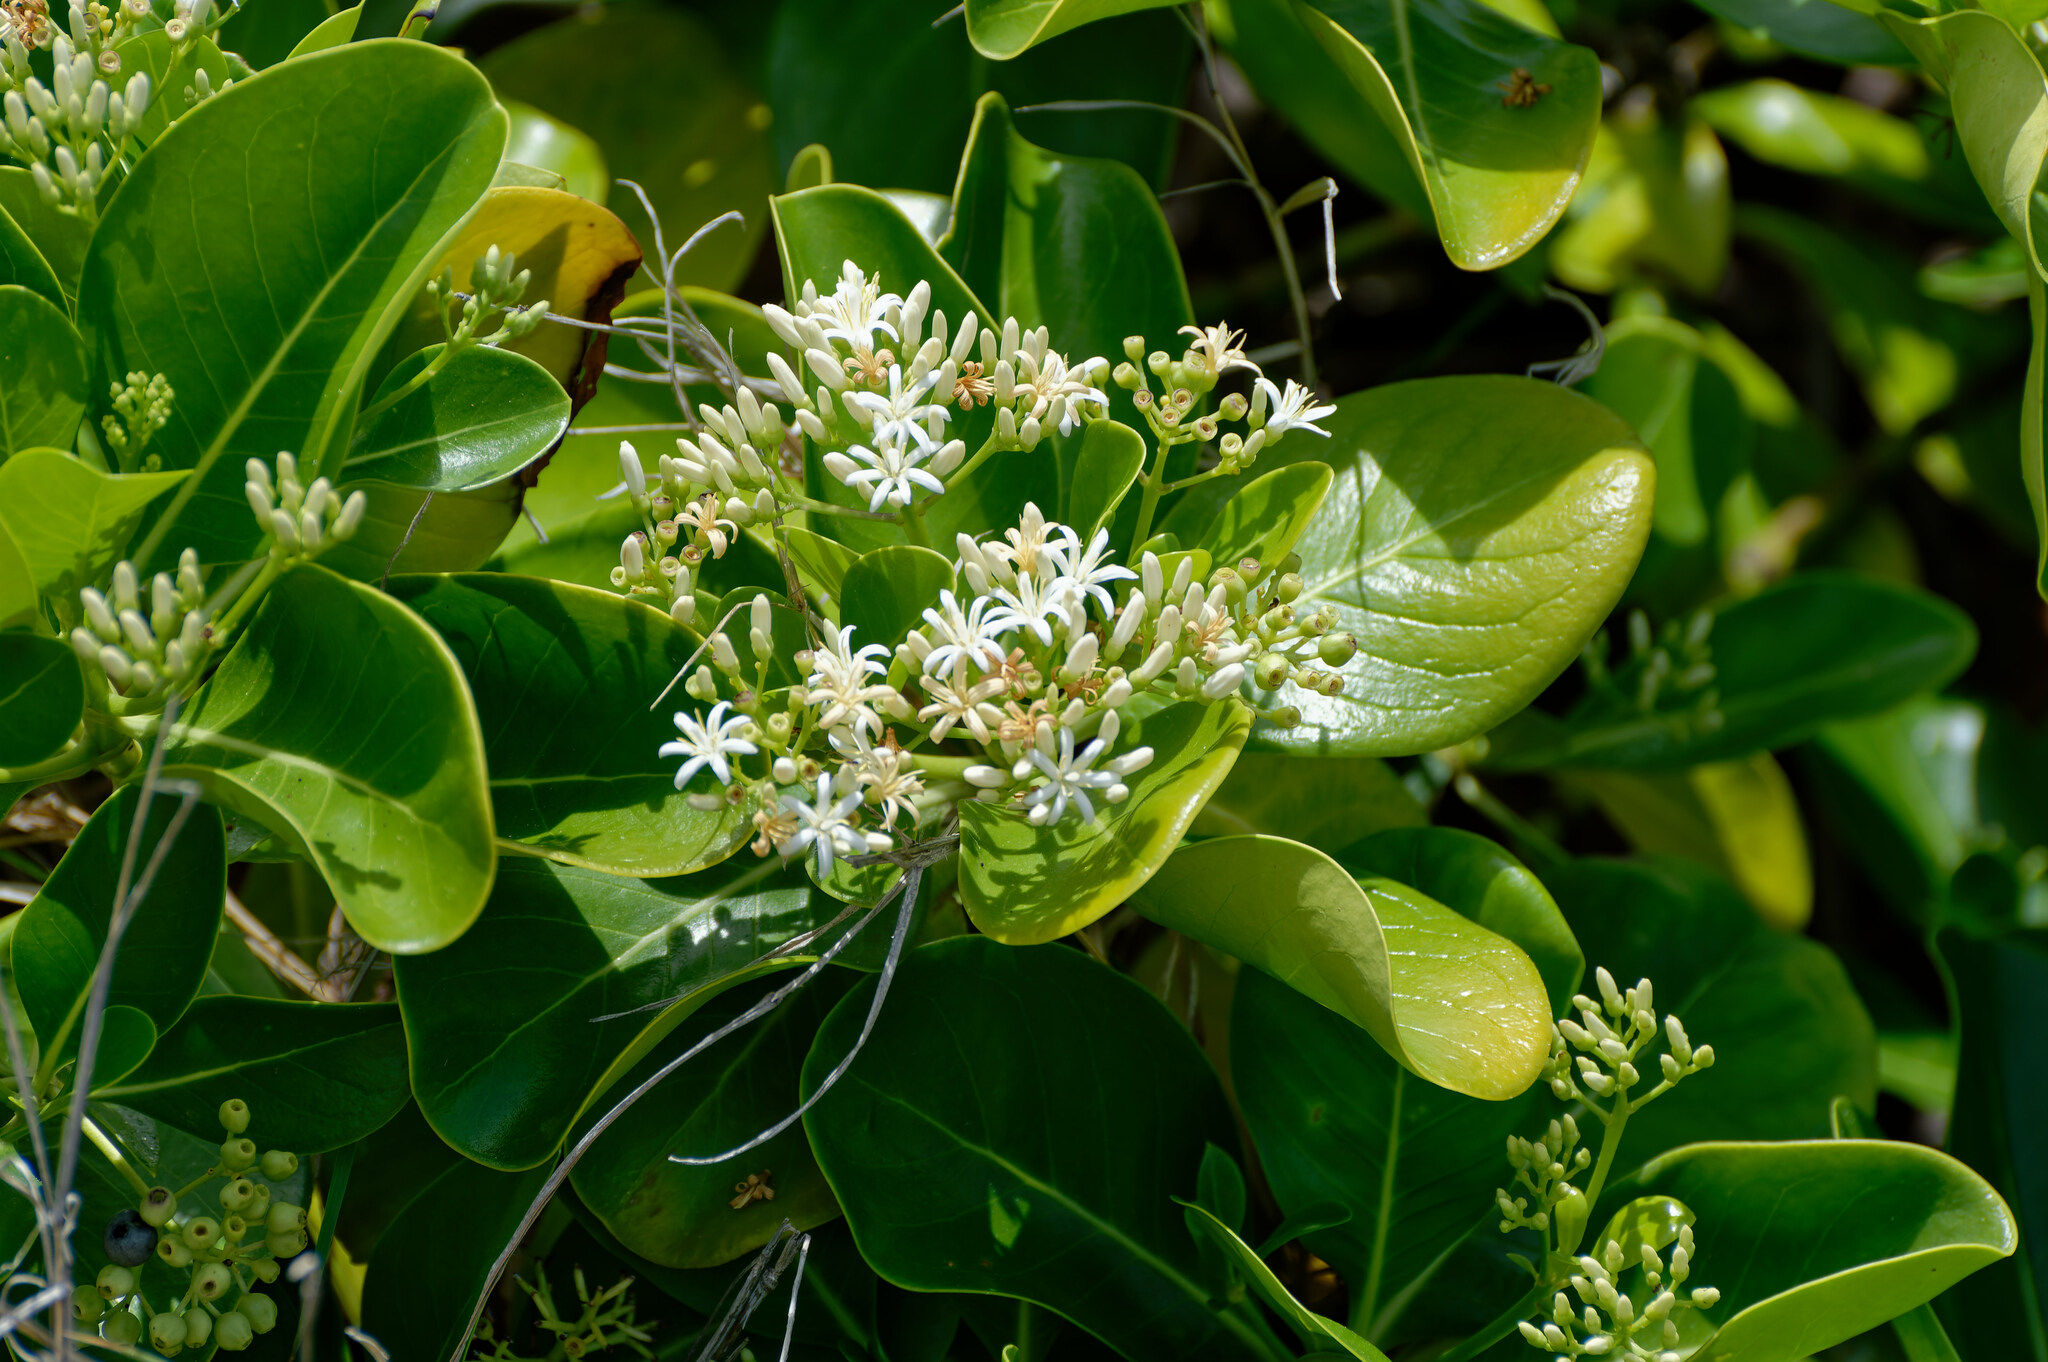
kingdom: Plantae
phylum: Tracheophyta
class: Magnoliopsida
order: Gentianales
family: Rubiaceae
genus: Erithalis
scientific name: Erithalis fruticosa
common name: Candlewood
